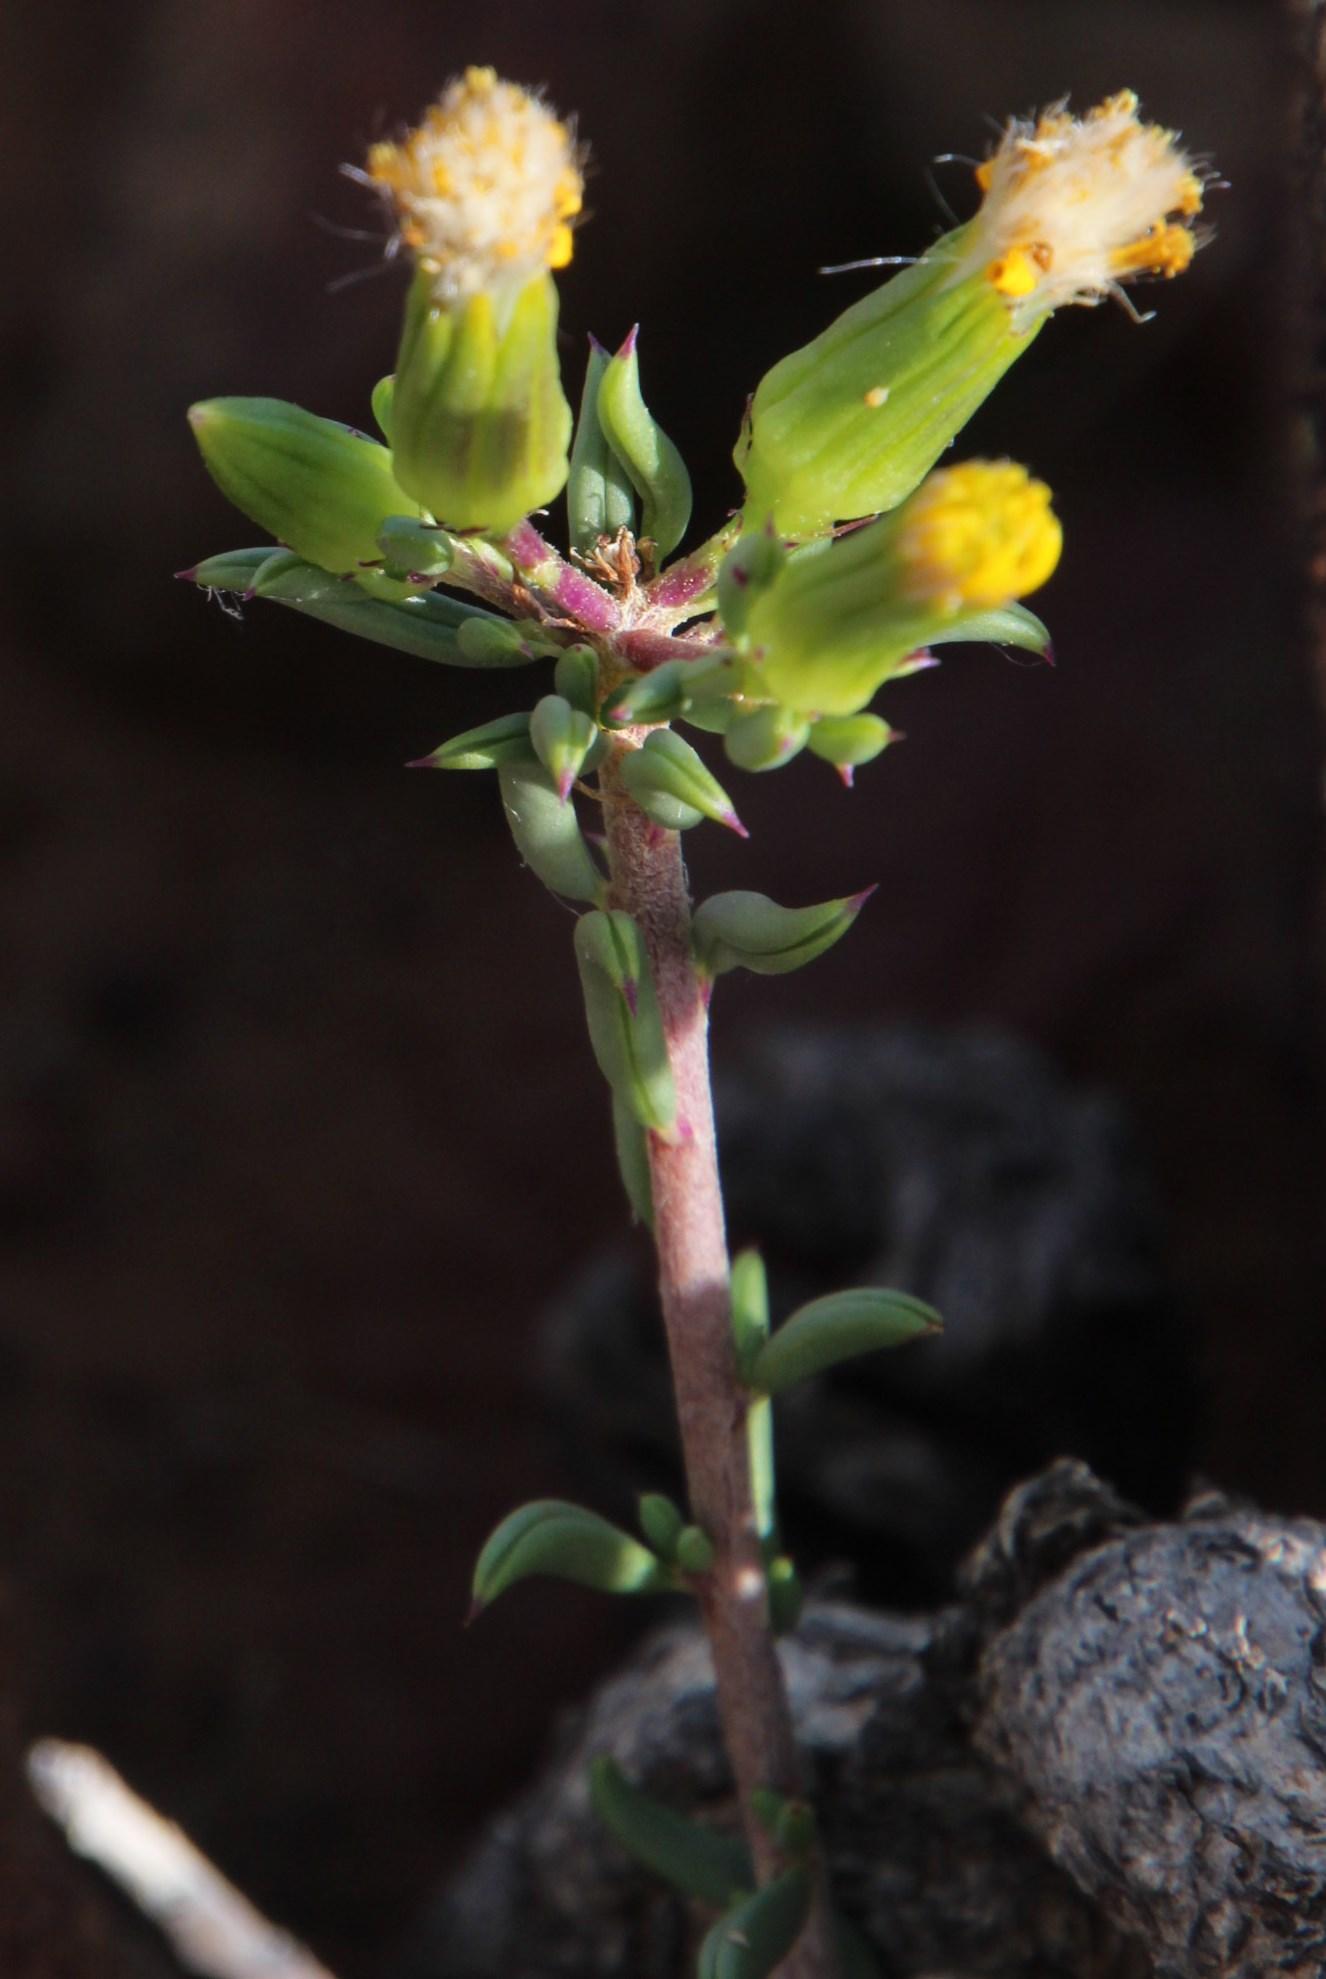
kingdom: Plantae
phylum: Tracheophyta
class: Magnoliopsida
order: Asterales
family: Asteraceae
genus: Senecio
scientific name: Senecio acutifolius
